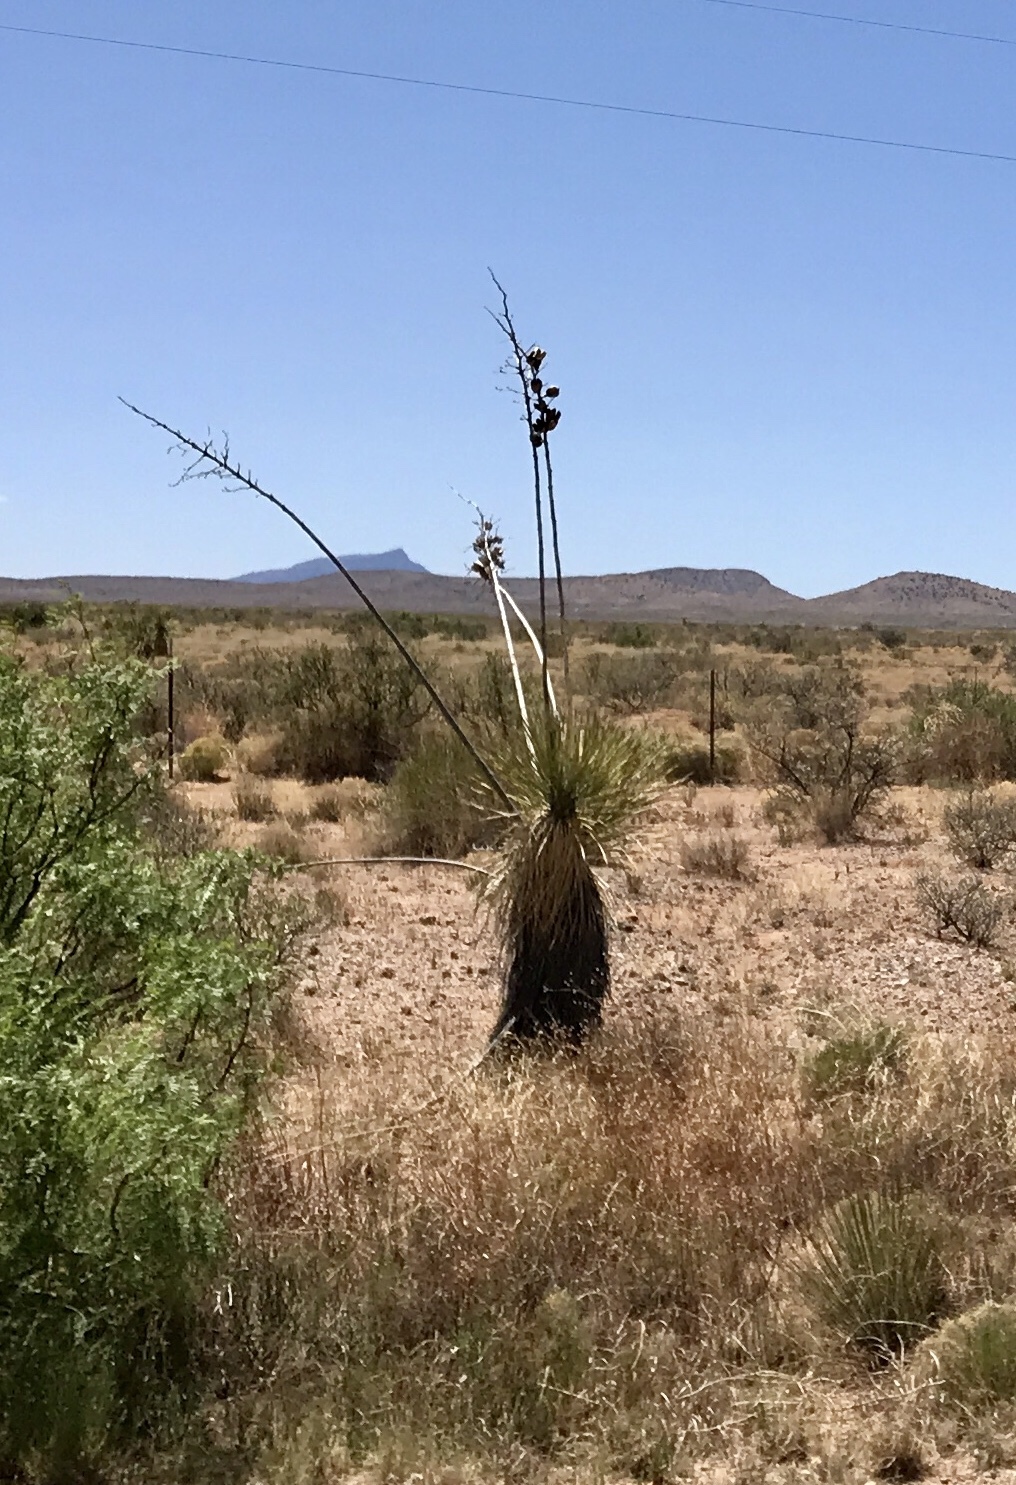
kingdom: Plantae
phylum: Tracheophyta
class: Liliopsida
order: Asparagales
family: Asparagaceae
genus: Yucca
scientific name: Yucca elata
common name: Palmella
